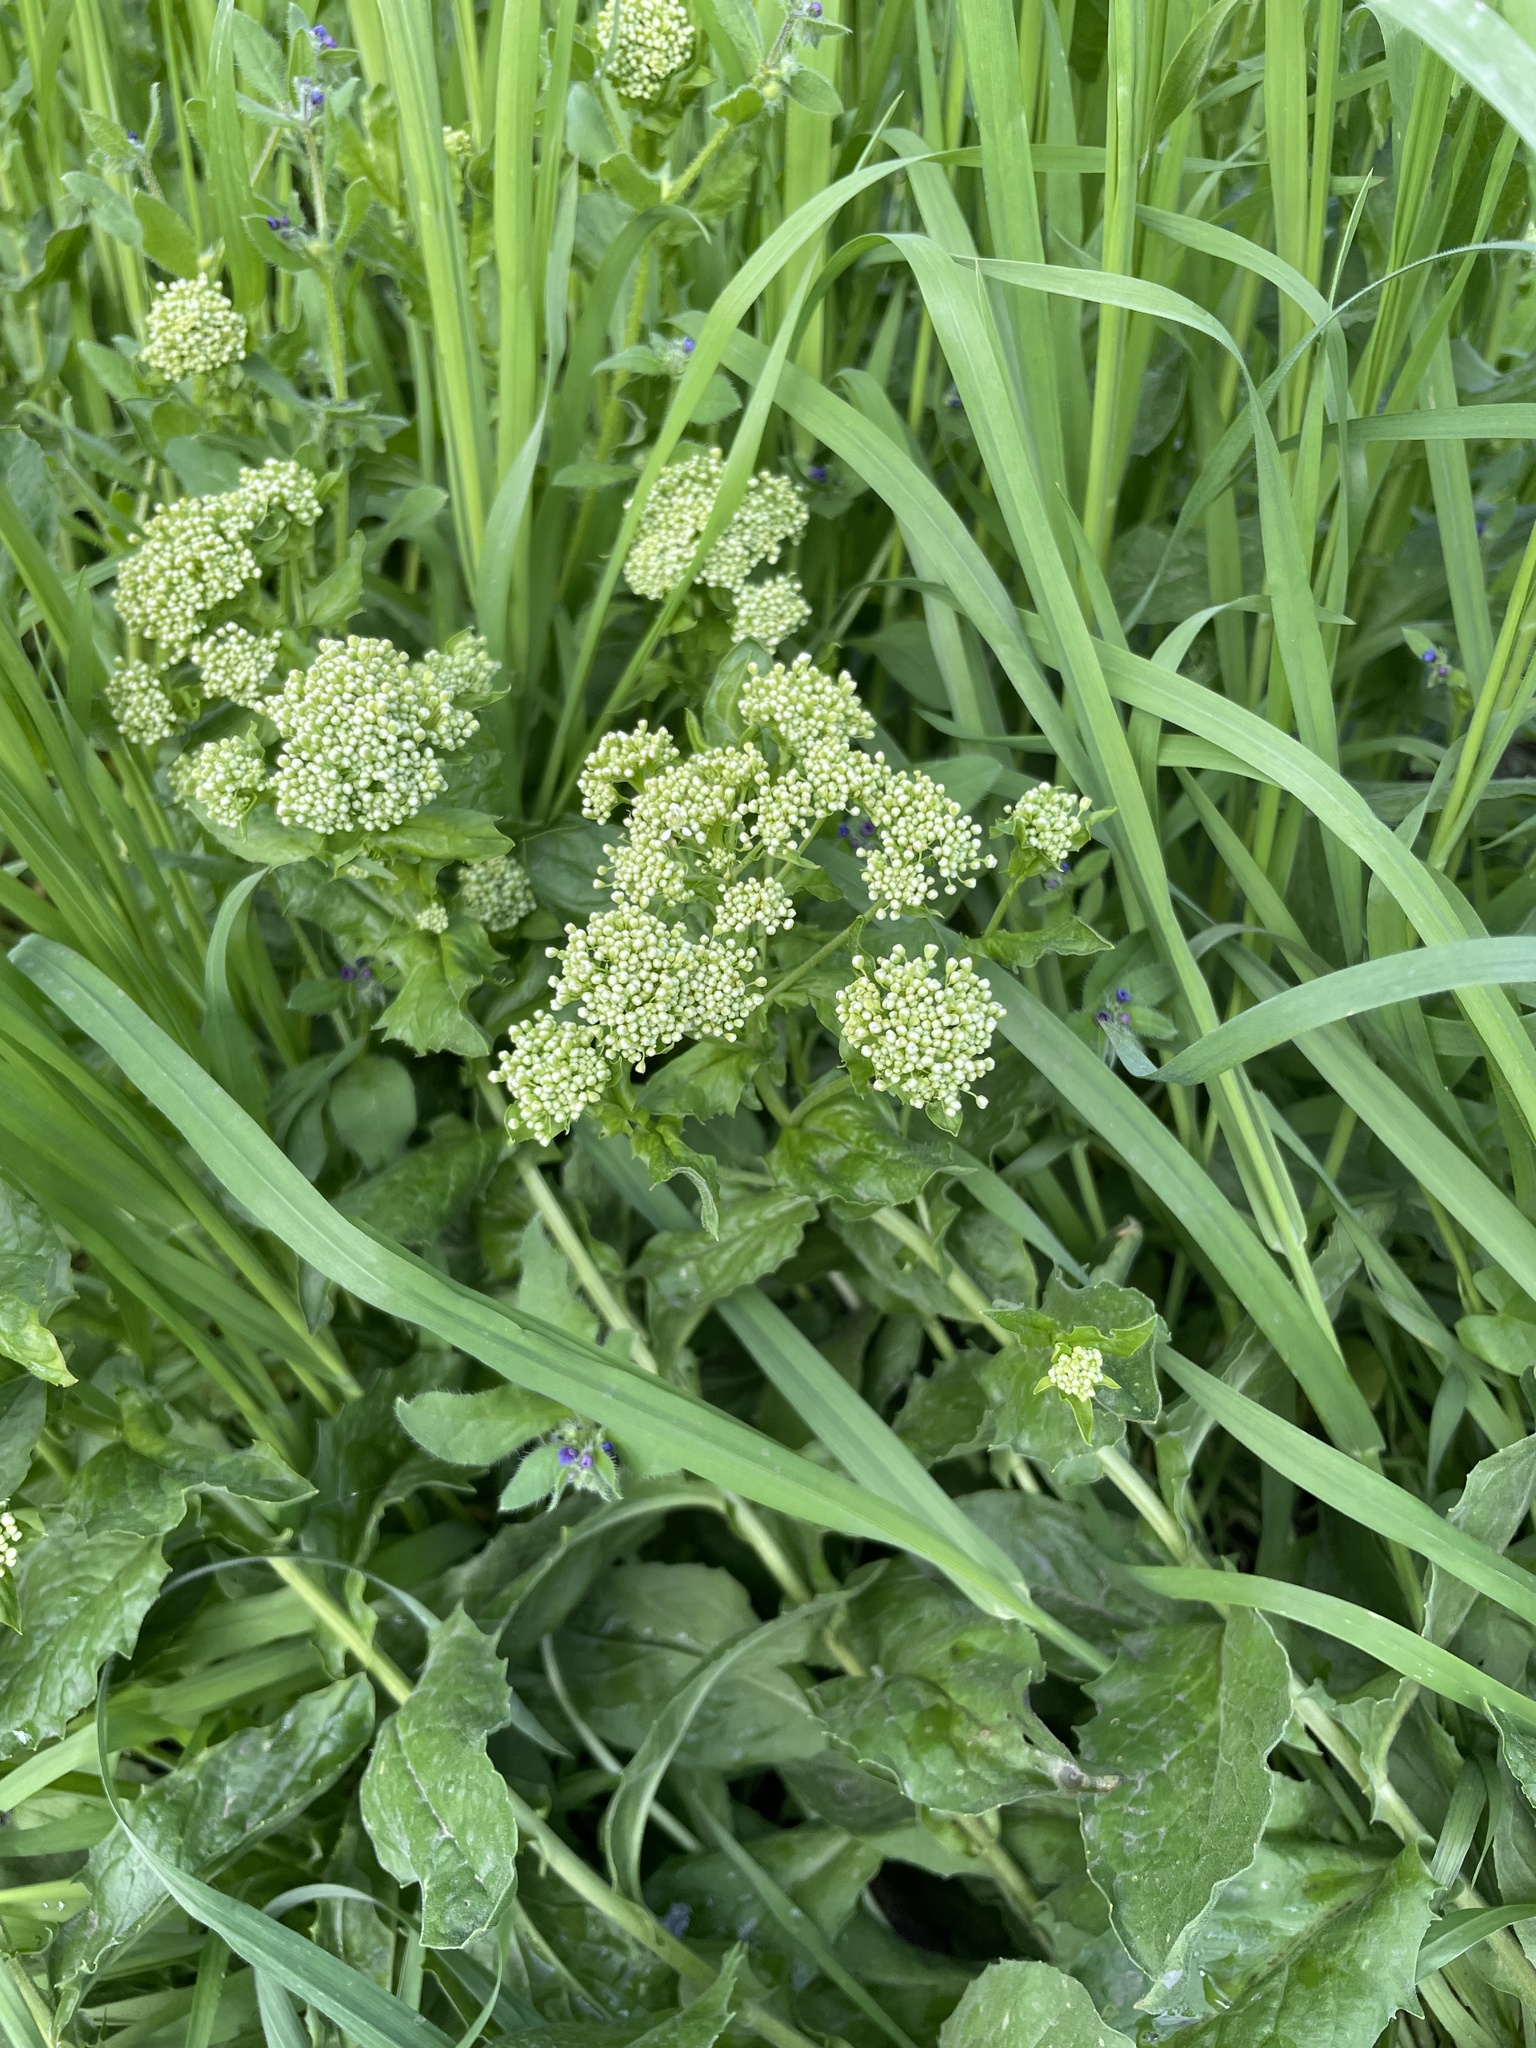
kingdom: Plantae
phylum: Tracheophyta
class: Magnoliopsida
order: Brassicales
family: Brassicaceae
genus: Lepidium
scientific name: Lepidium draba
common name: Hoary cress
